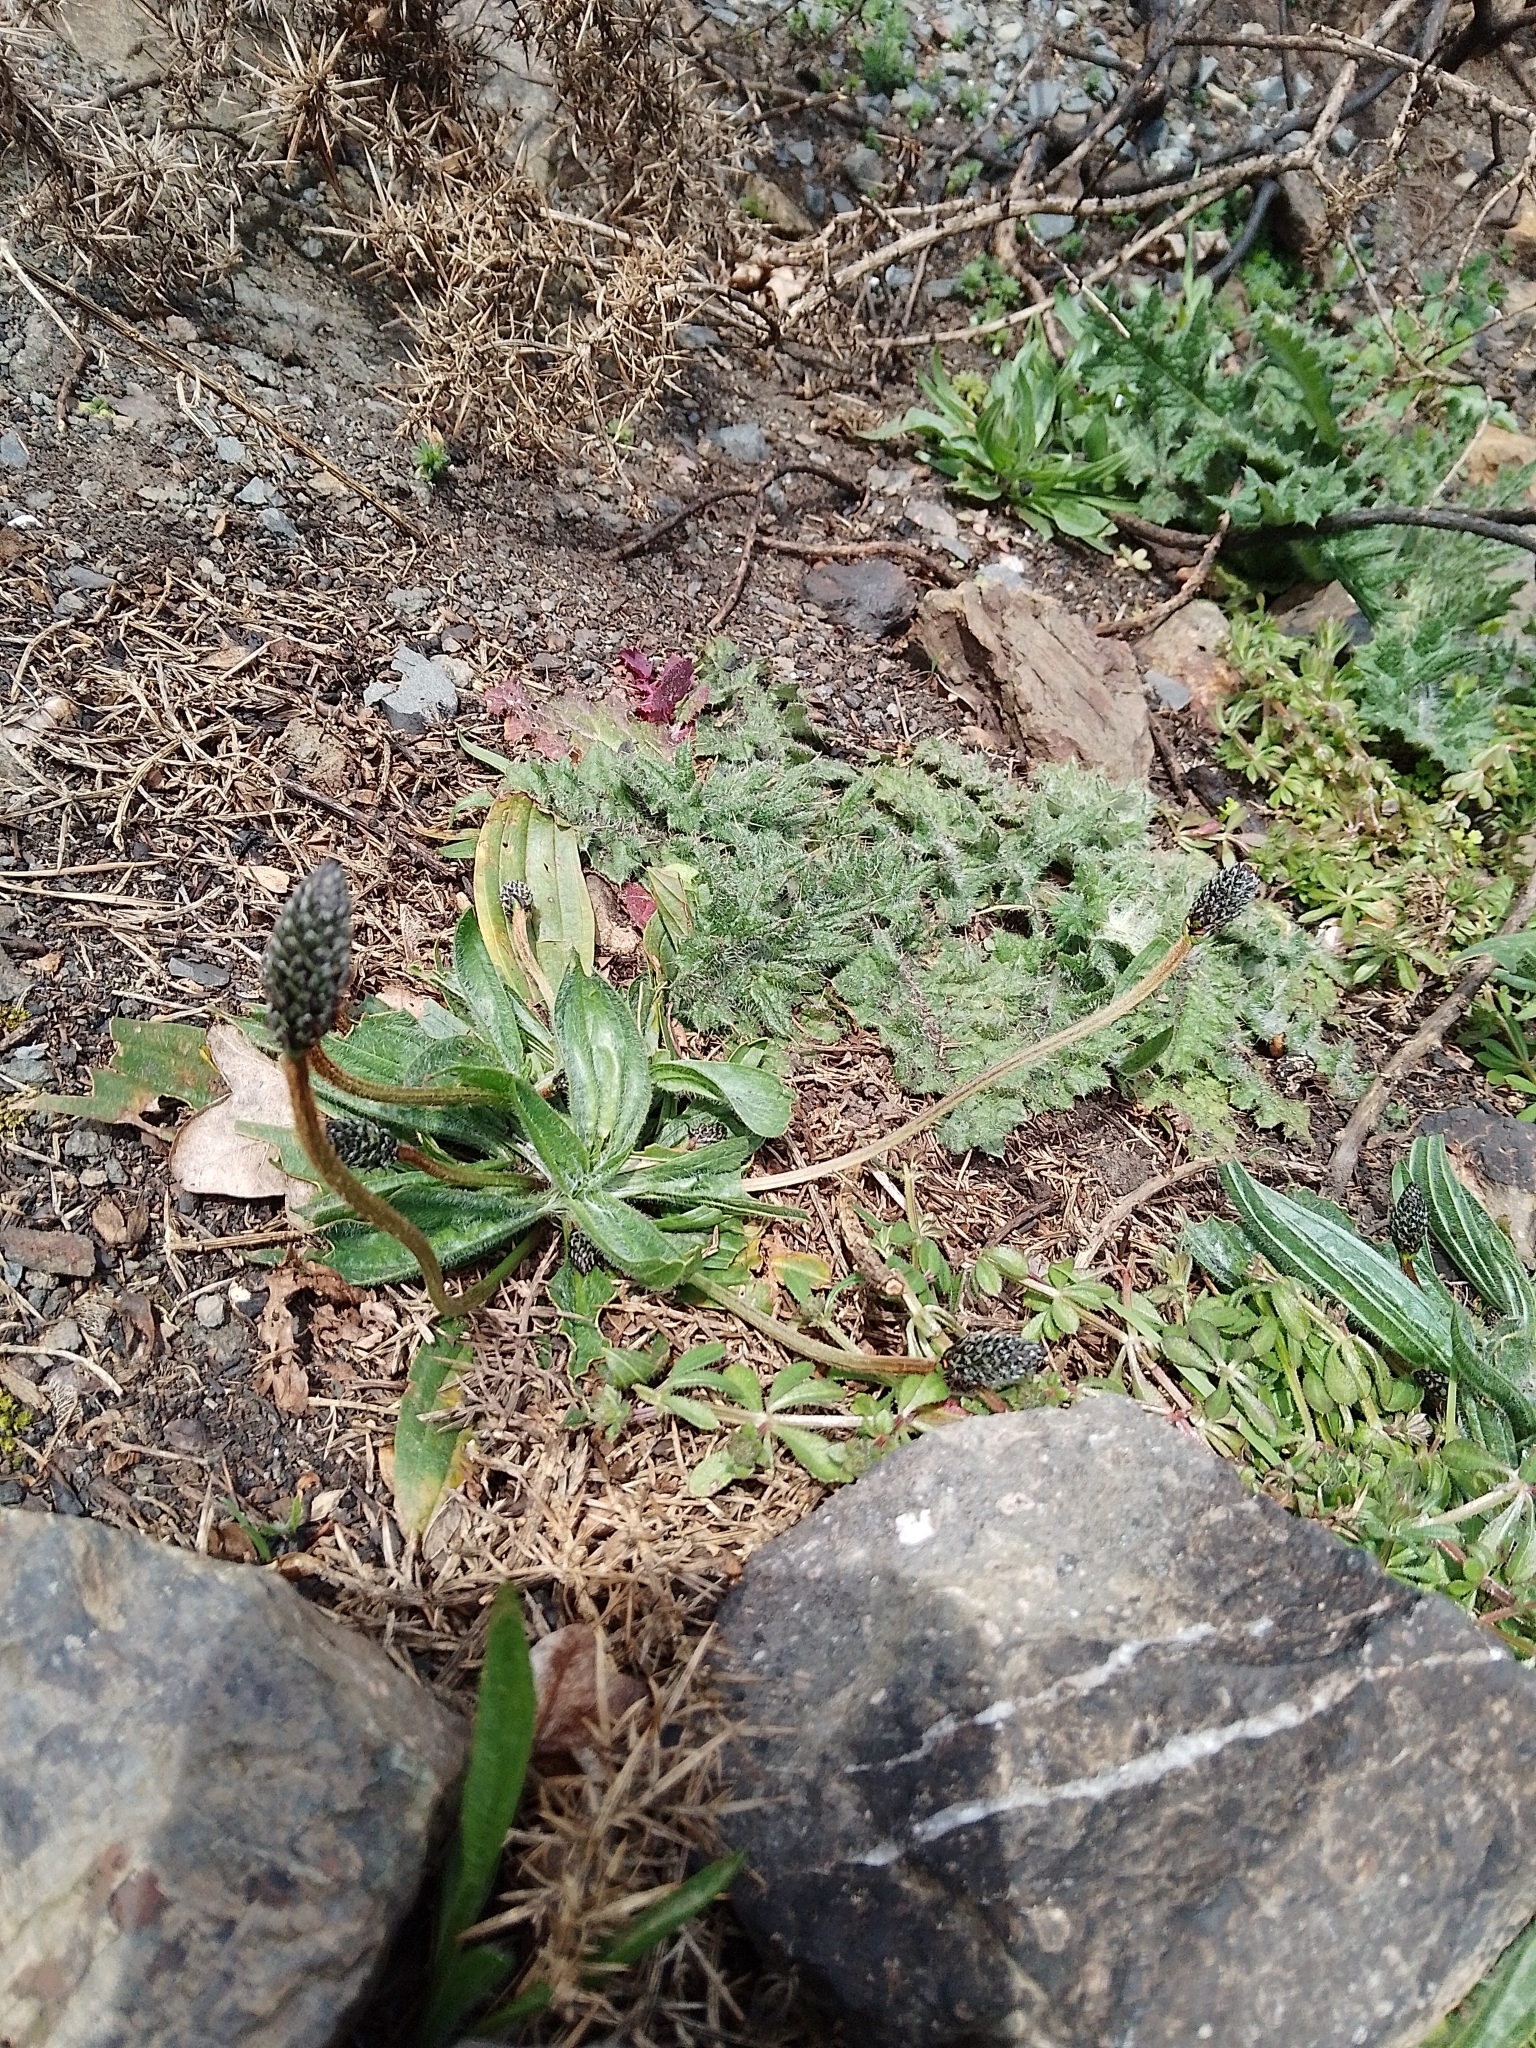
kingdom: Plantae
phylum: Tracheophyta
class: Magnoliopsida
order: Lamiales
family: Plantaginaceae
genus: Plantago
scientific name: Plantago lanceolata
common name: Ribwort plantain
